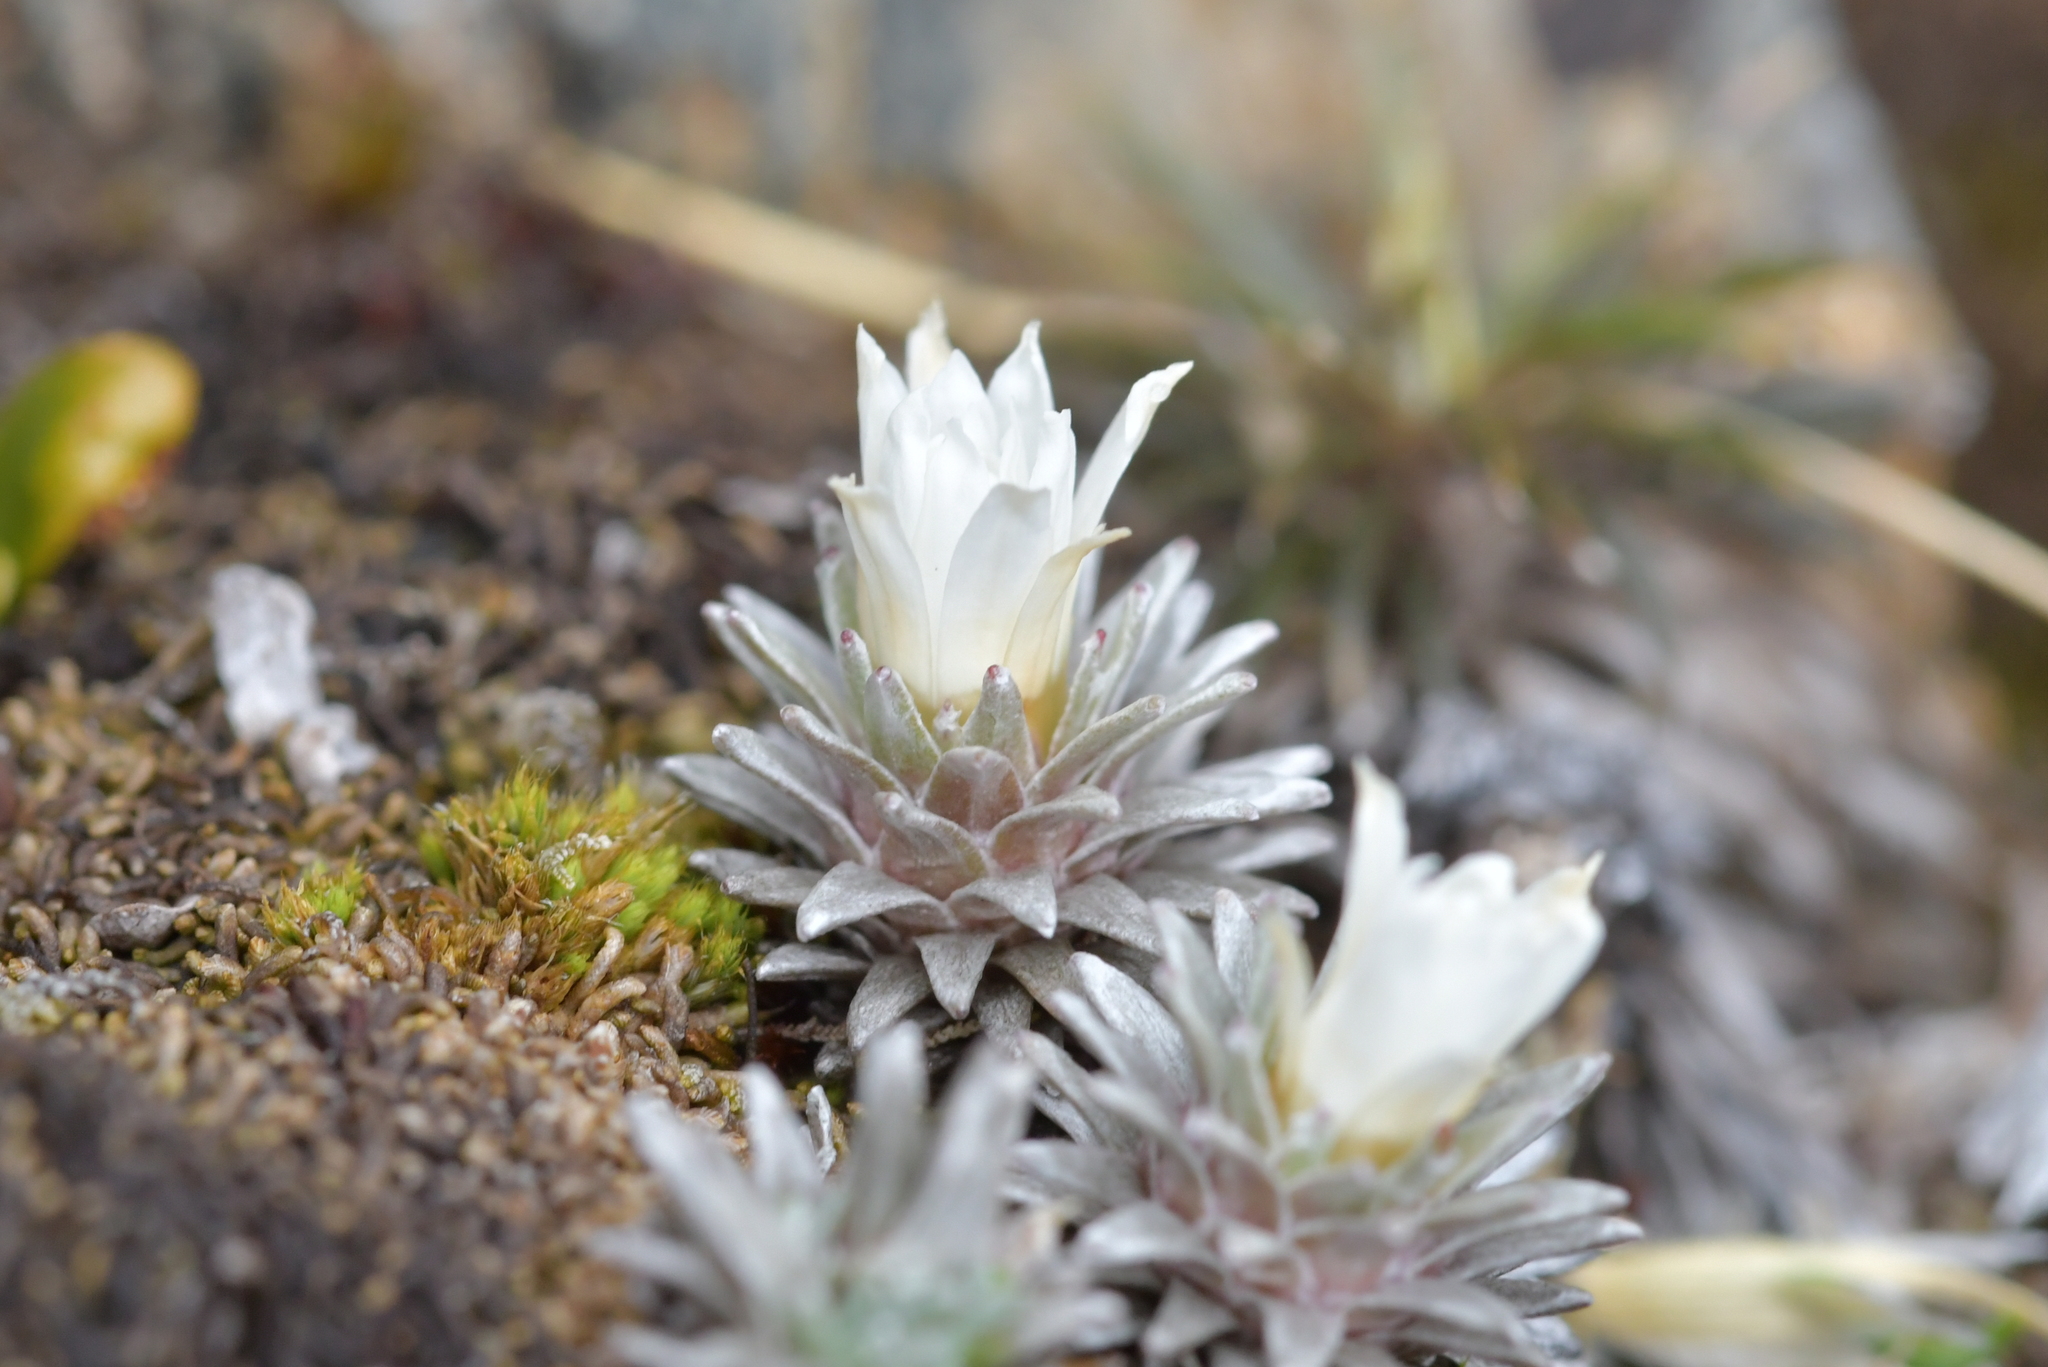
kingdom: Plantae
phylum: Tracheophyta
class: Magnoliopsida
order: Asterales
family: Asteraceae
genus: Raoulia
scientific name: Raoulia grandiflora
